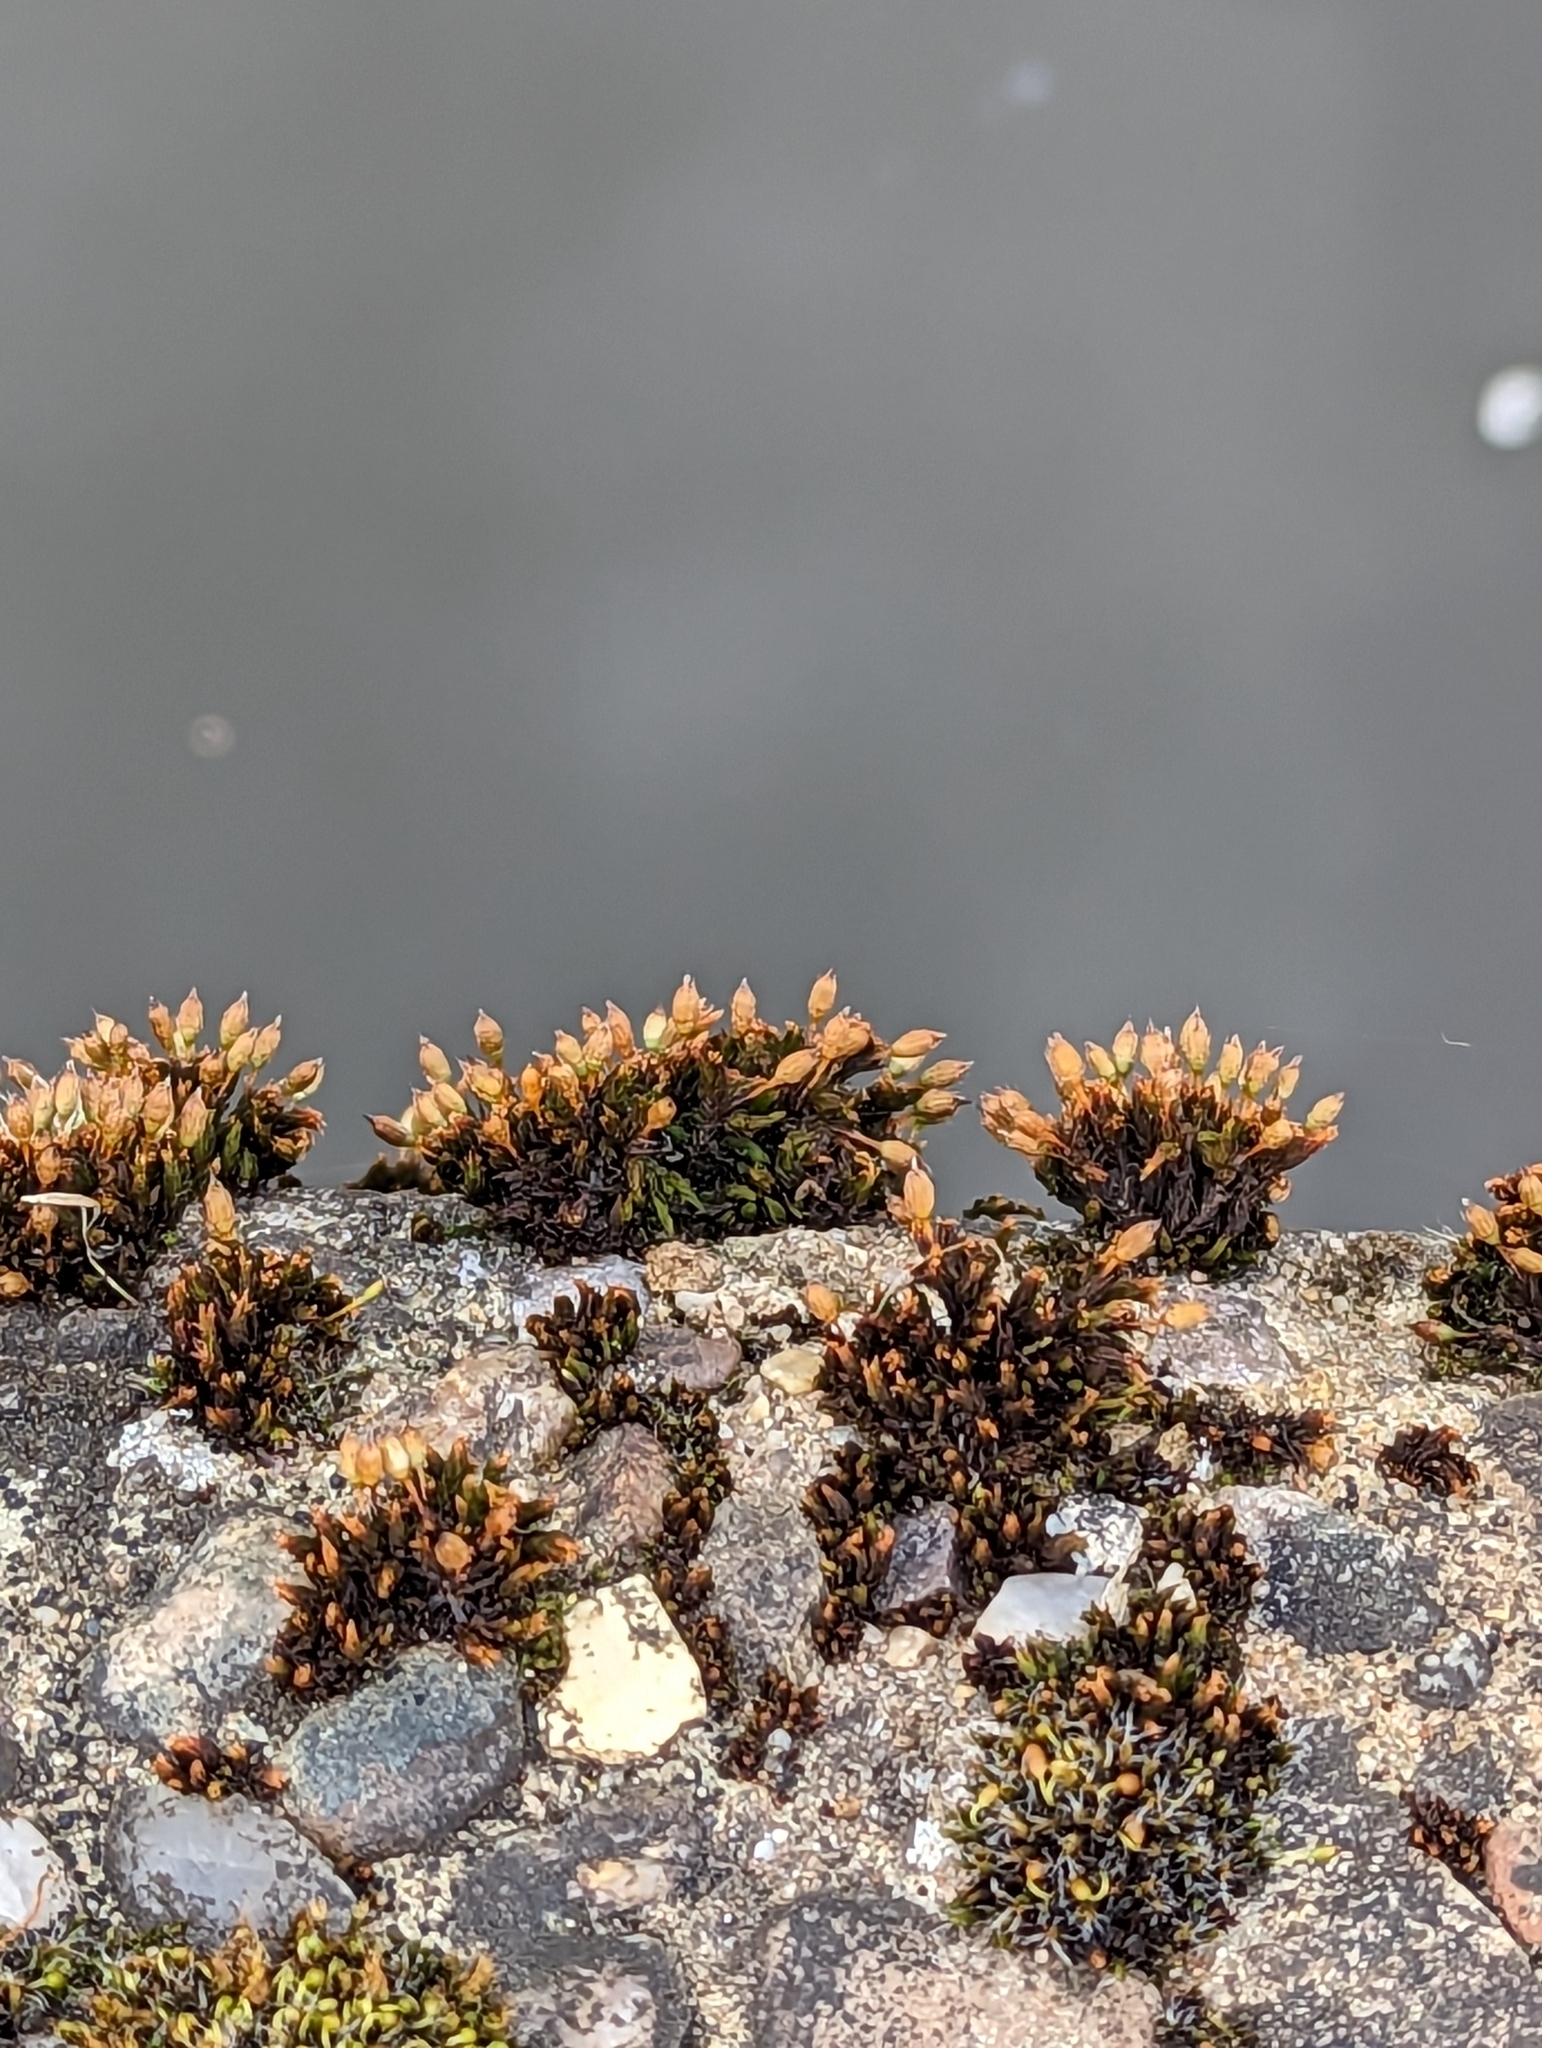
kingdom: Plantae
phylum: Bryophyta
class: Bryopsida
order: Orthotrichales
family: Orthotrichaceae
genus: Orthotrichum
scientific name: Orthotrichum anomalum
